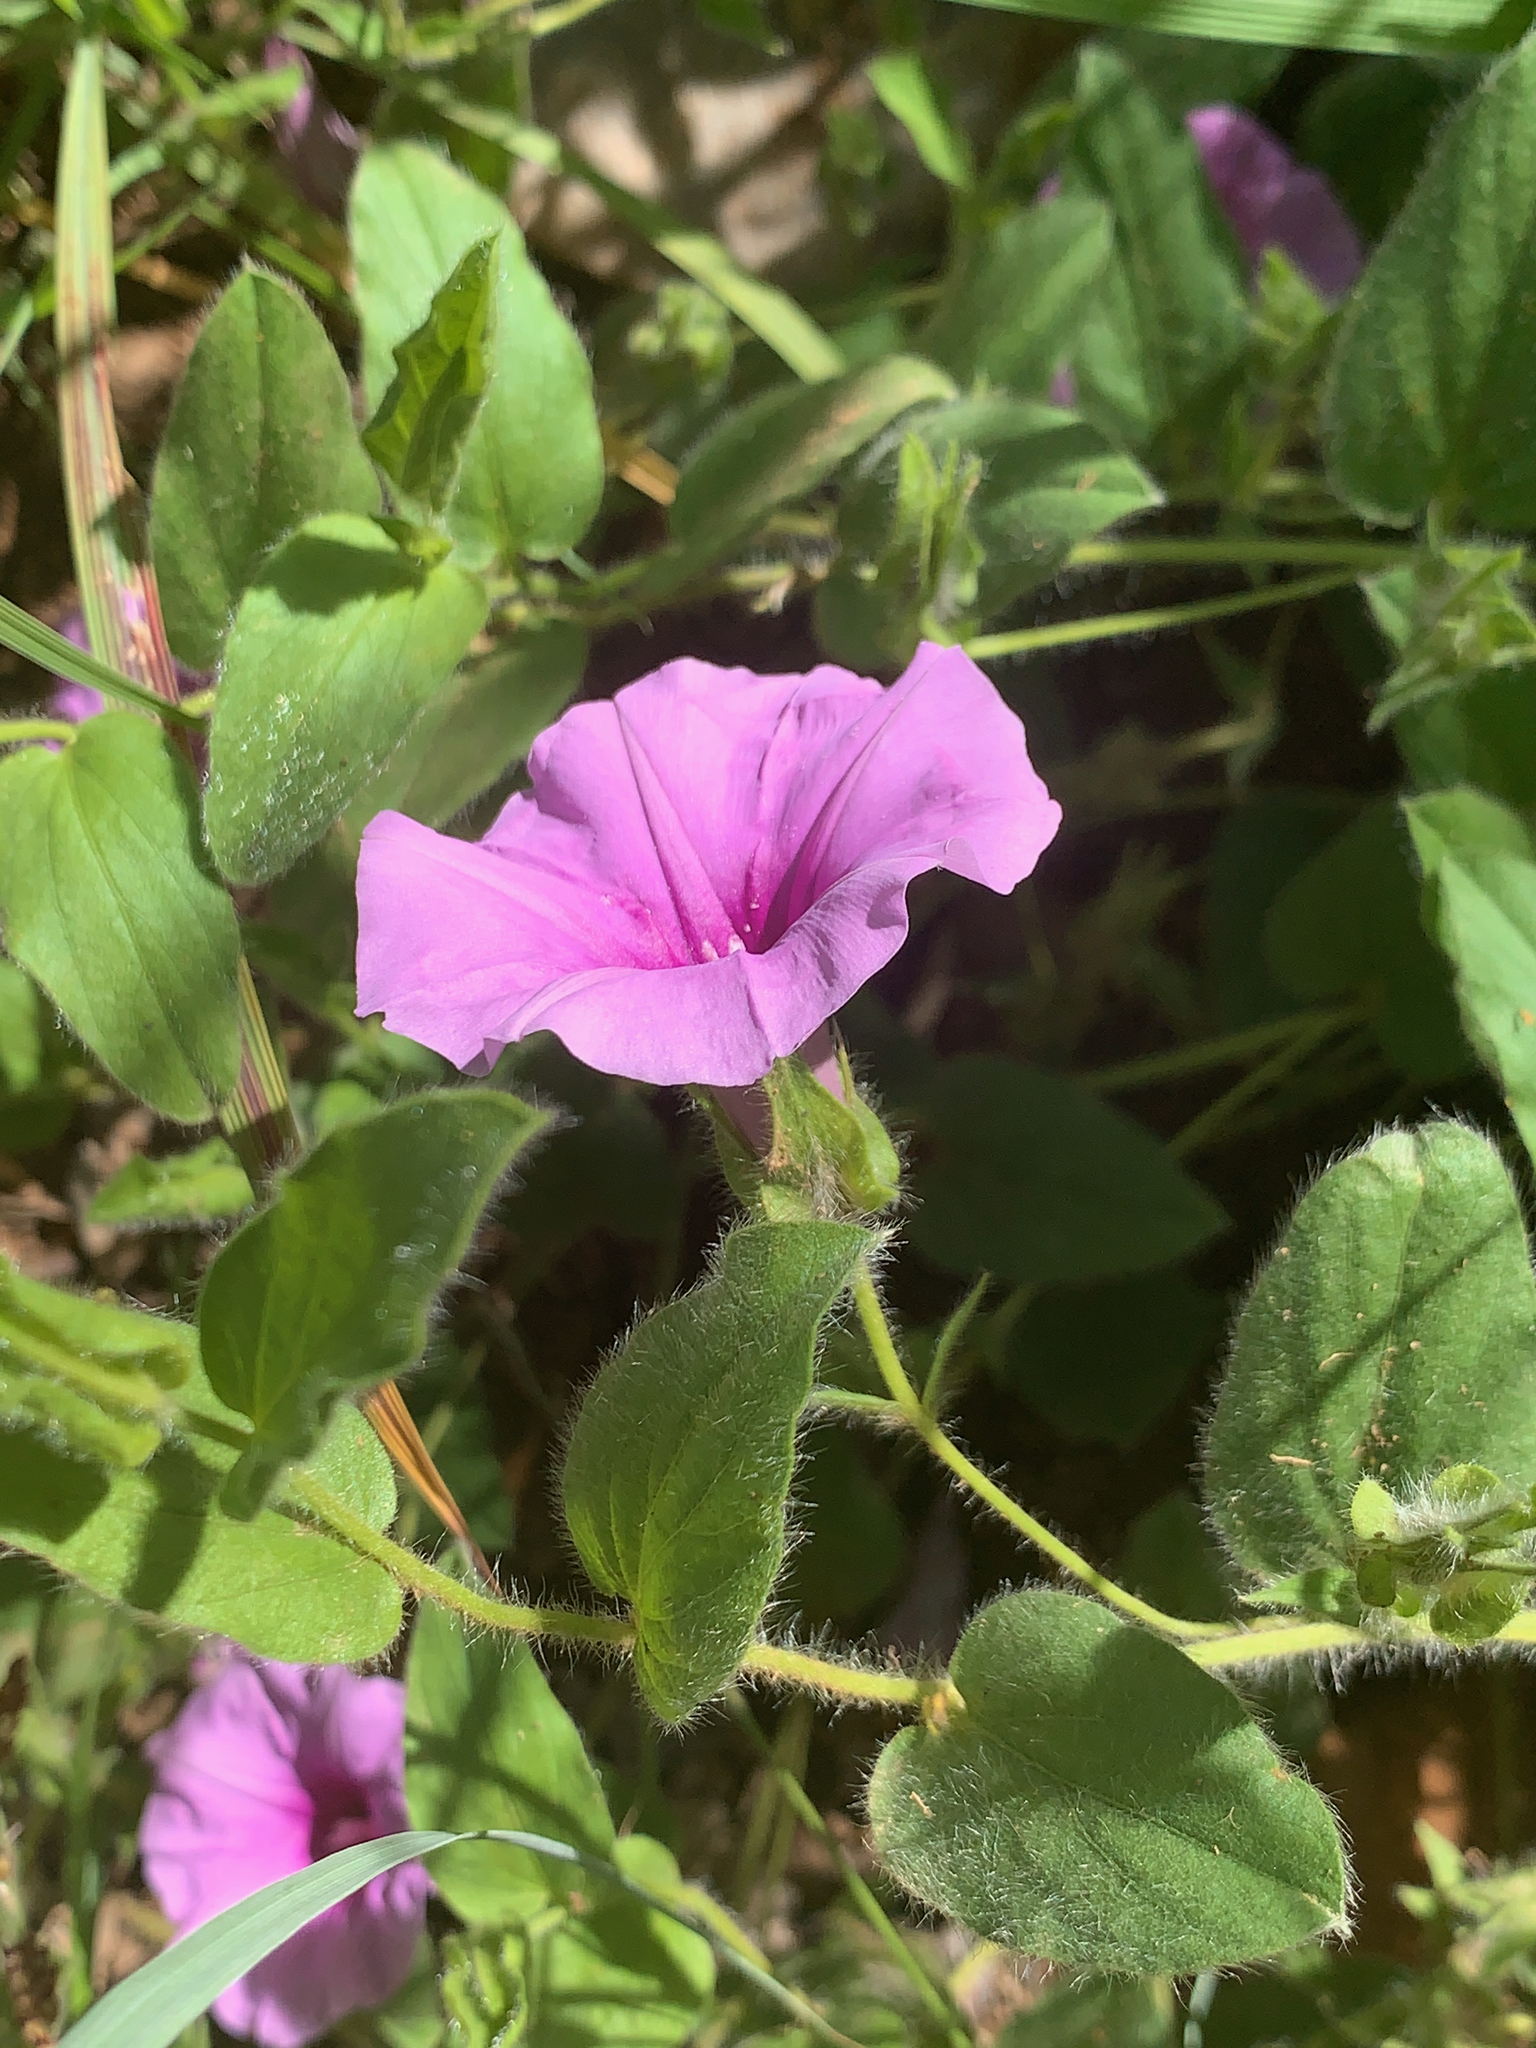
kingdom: Plantae
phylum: Tracheophyta
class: Magnoliopsida
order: Solanales
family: Convolvulaceae
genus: Ipomoea
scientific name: Ipomoea crassipes
